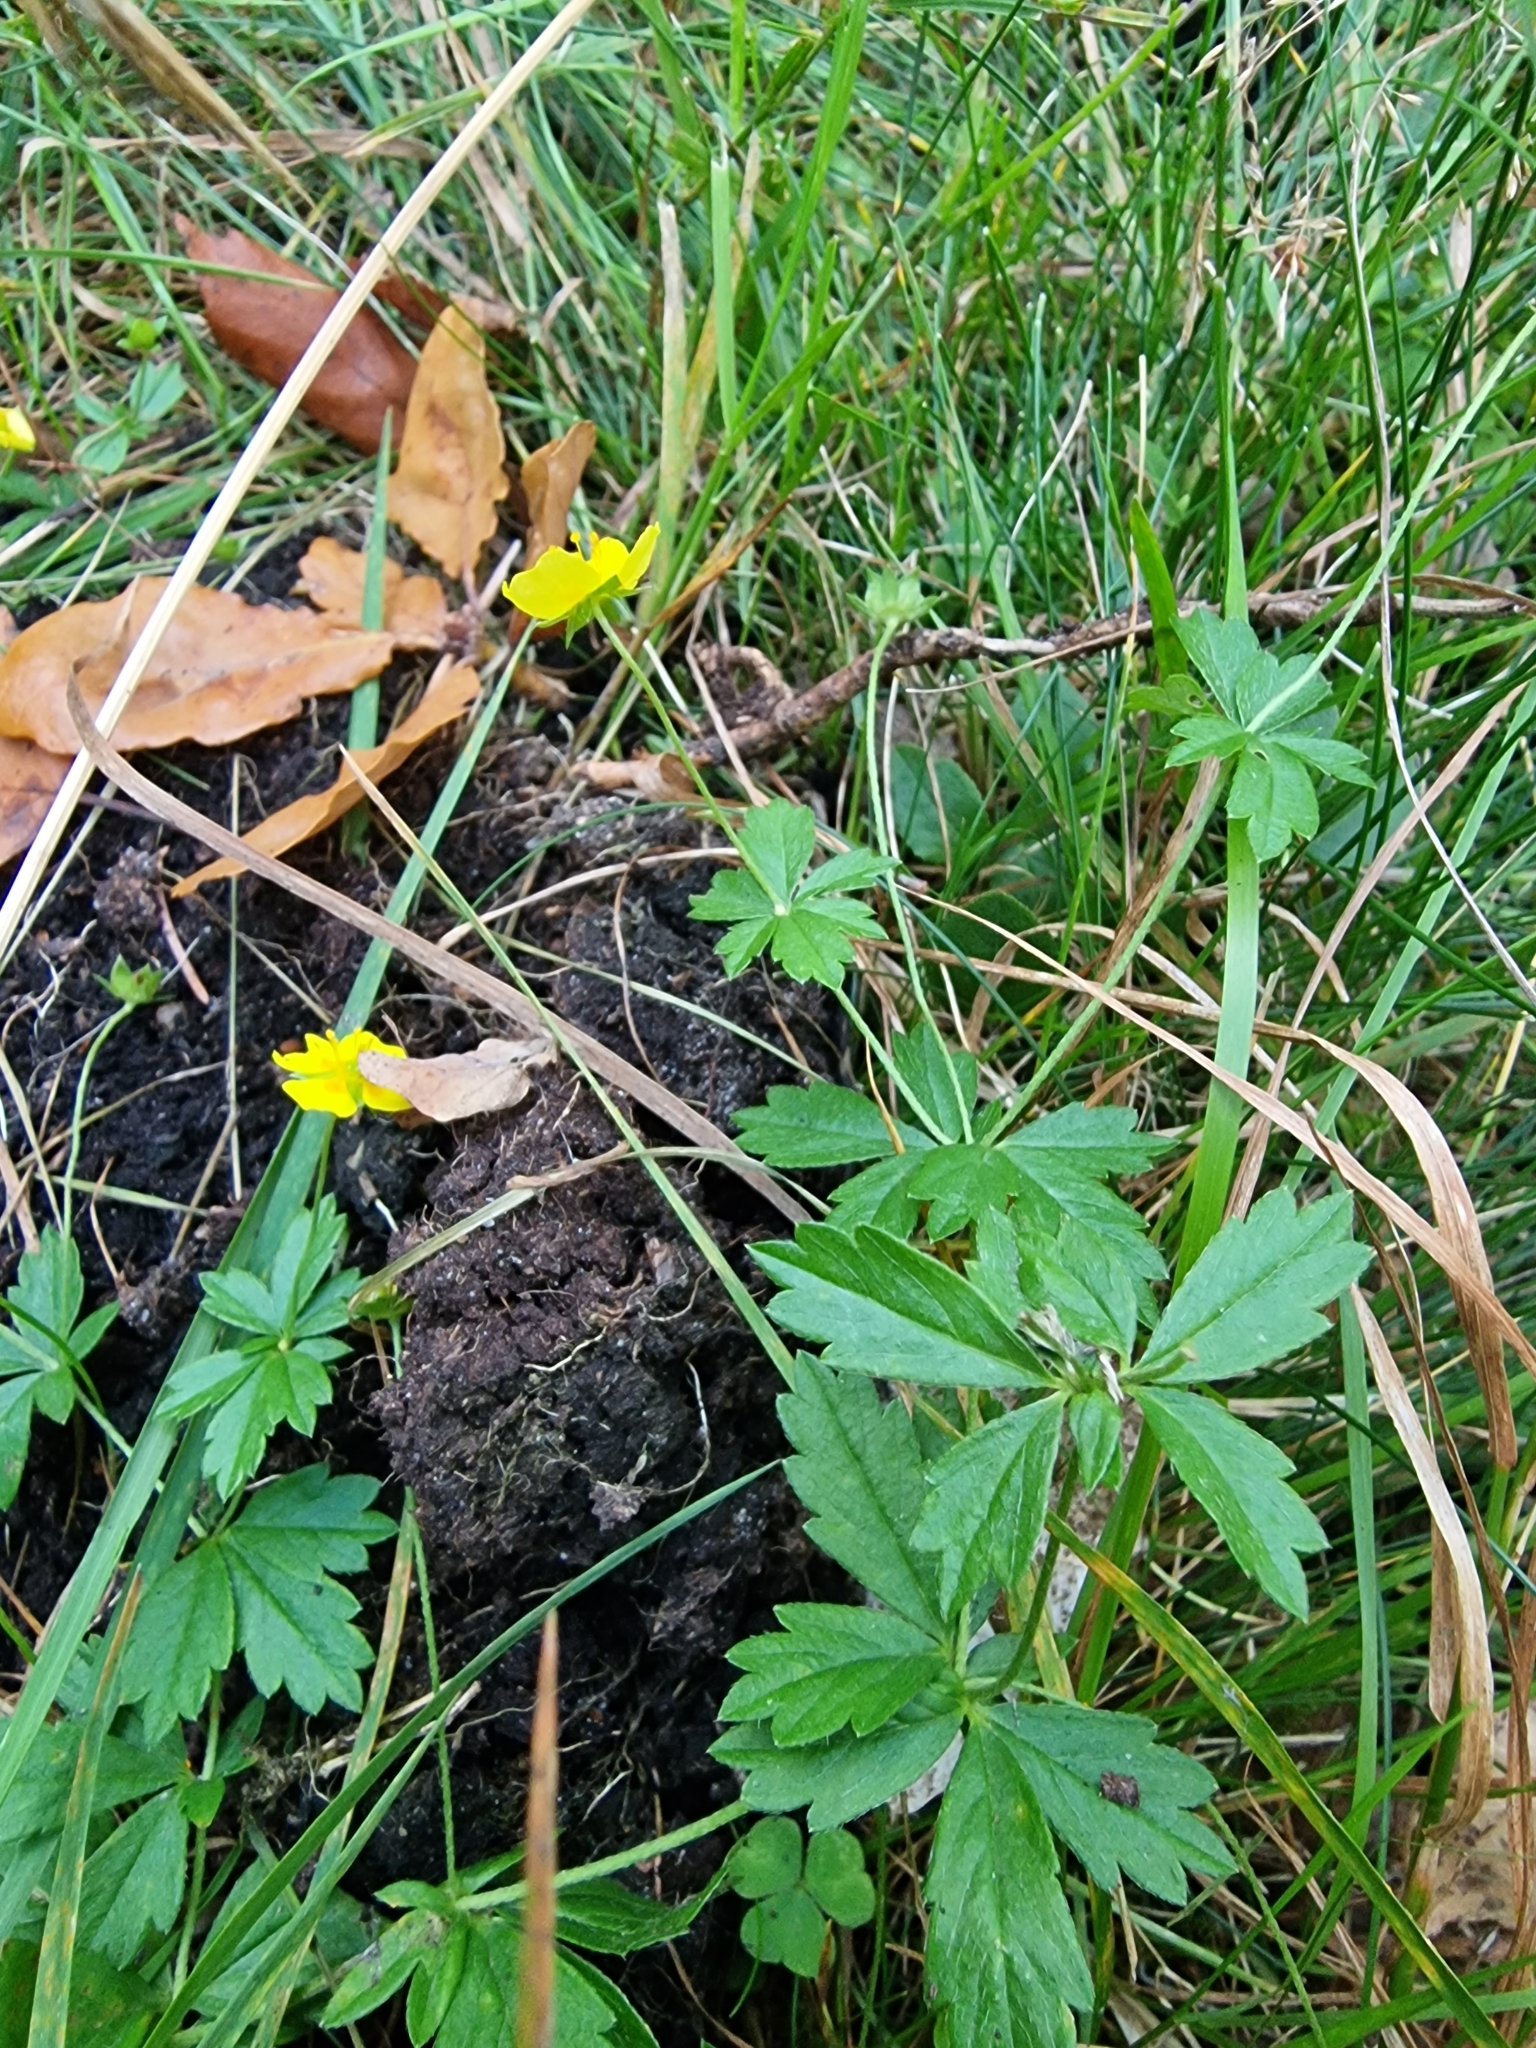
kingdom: Plantae
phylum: Tracheophyta
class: Magnoliopsida
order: Rosales
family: Rosaceae
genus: Potentilla
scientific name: Potentilla erecta
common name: Tormentil
